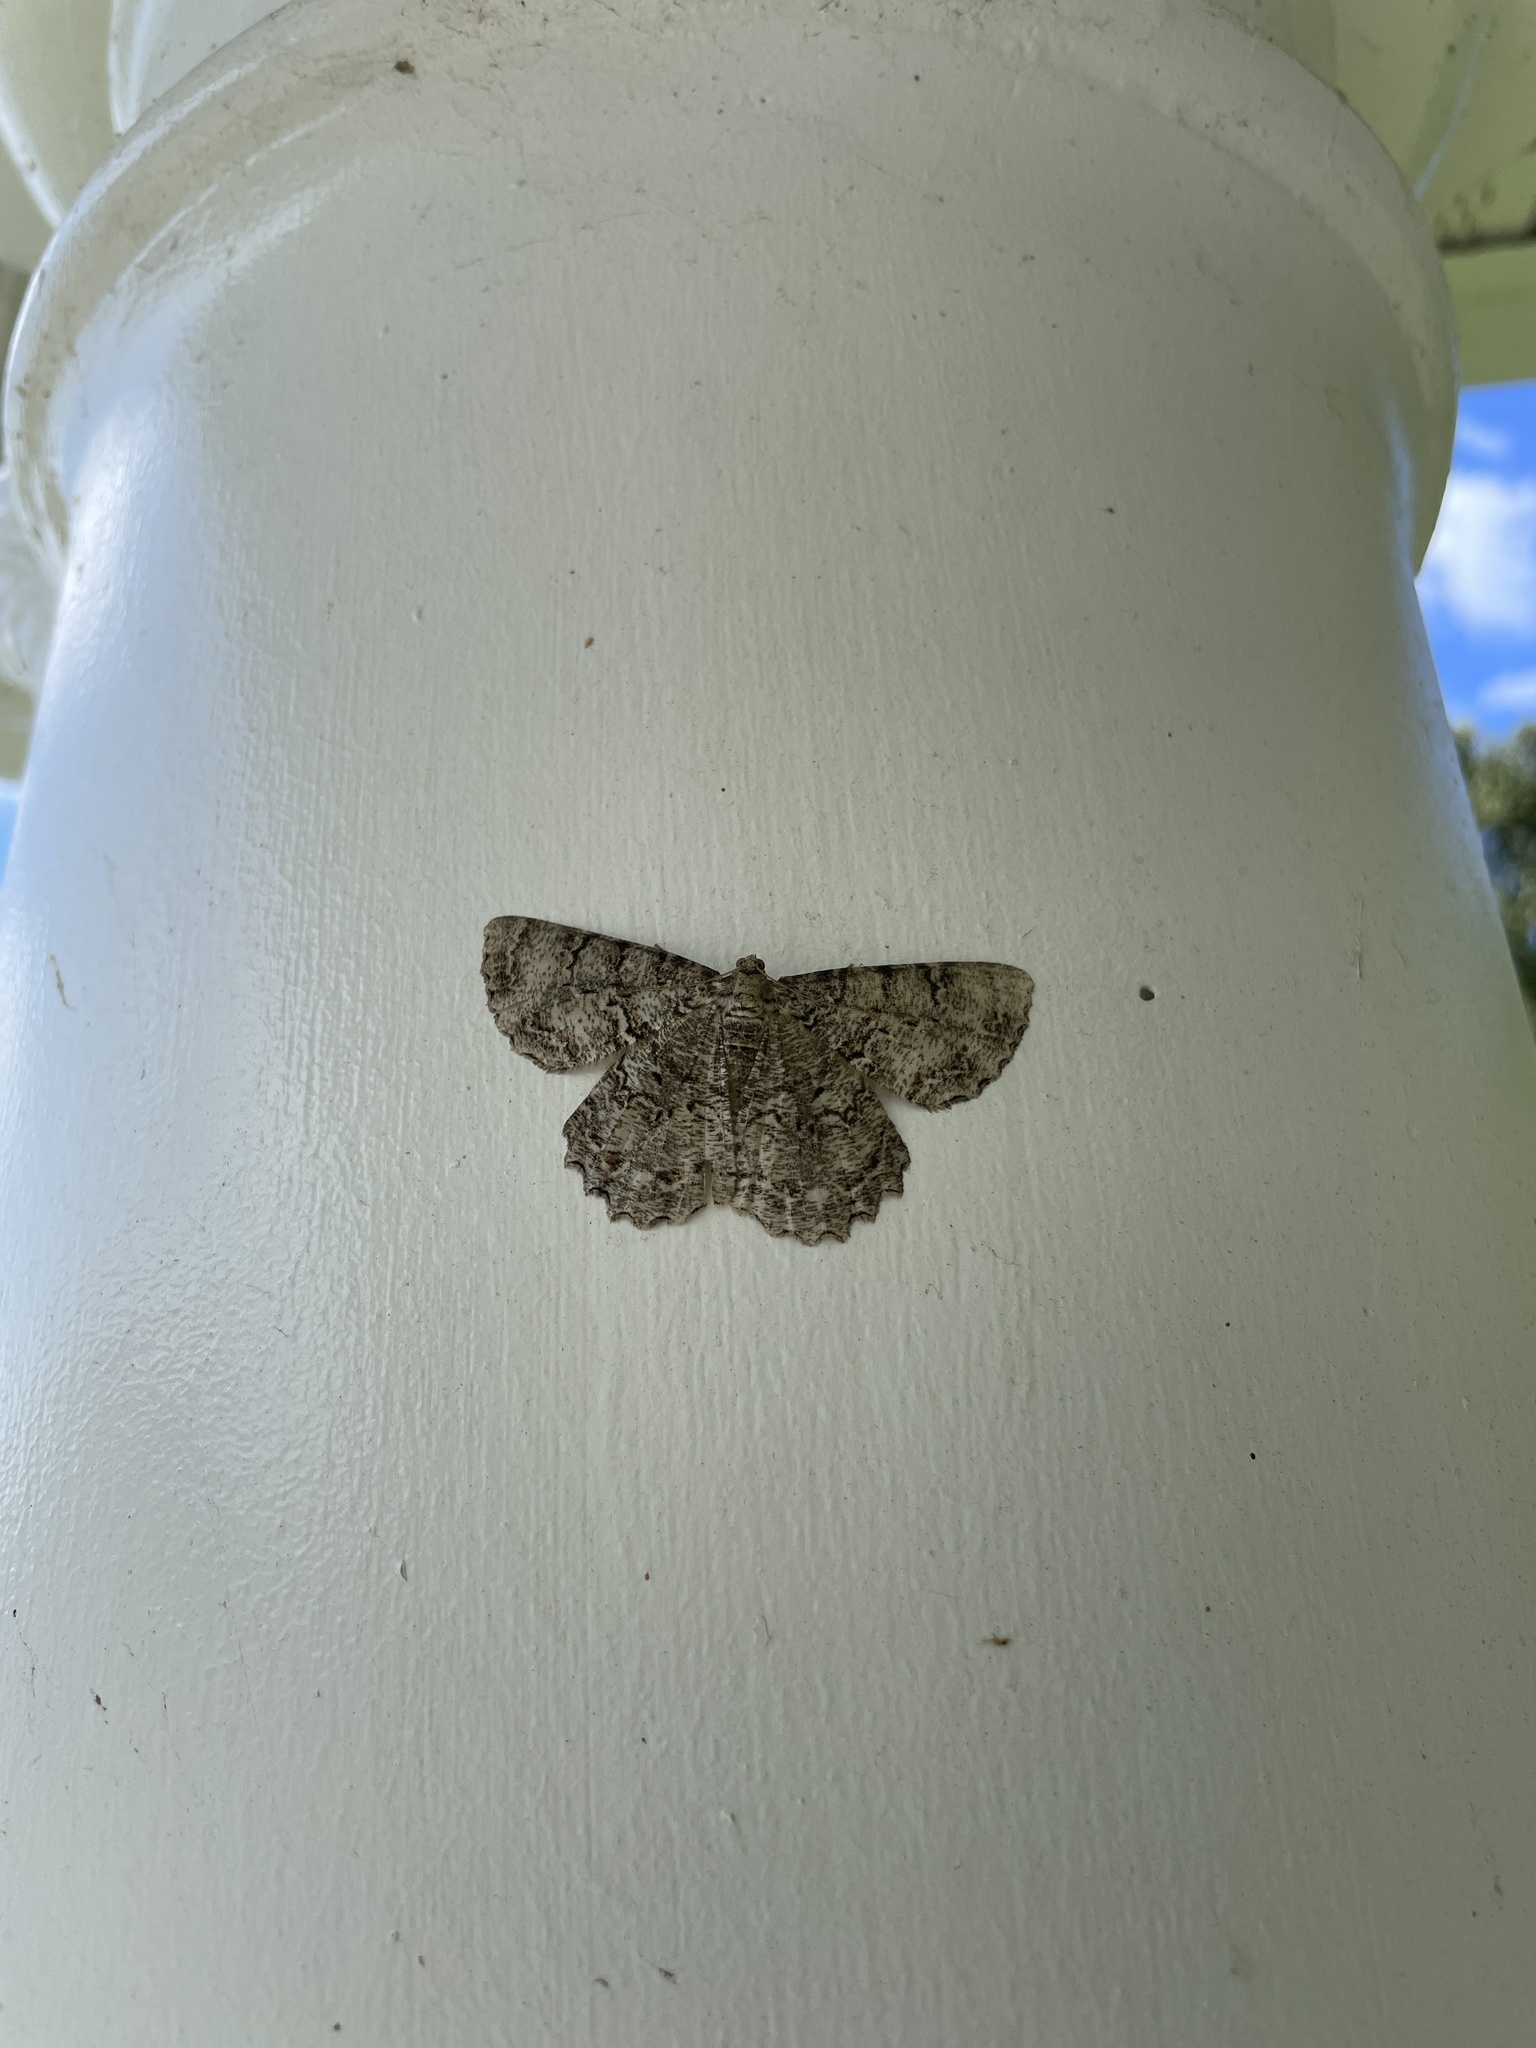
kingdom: Animalia
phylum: Arthropoda
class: Insecta
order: Lepidoptera
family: Geometridae
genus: Epimecis
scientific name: Epimecis hortaria
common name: Tulip-tree beauty
